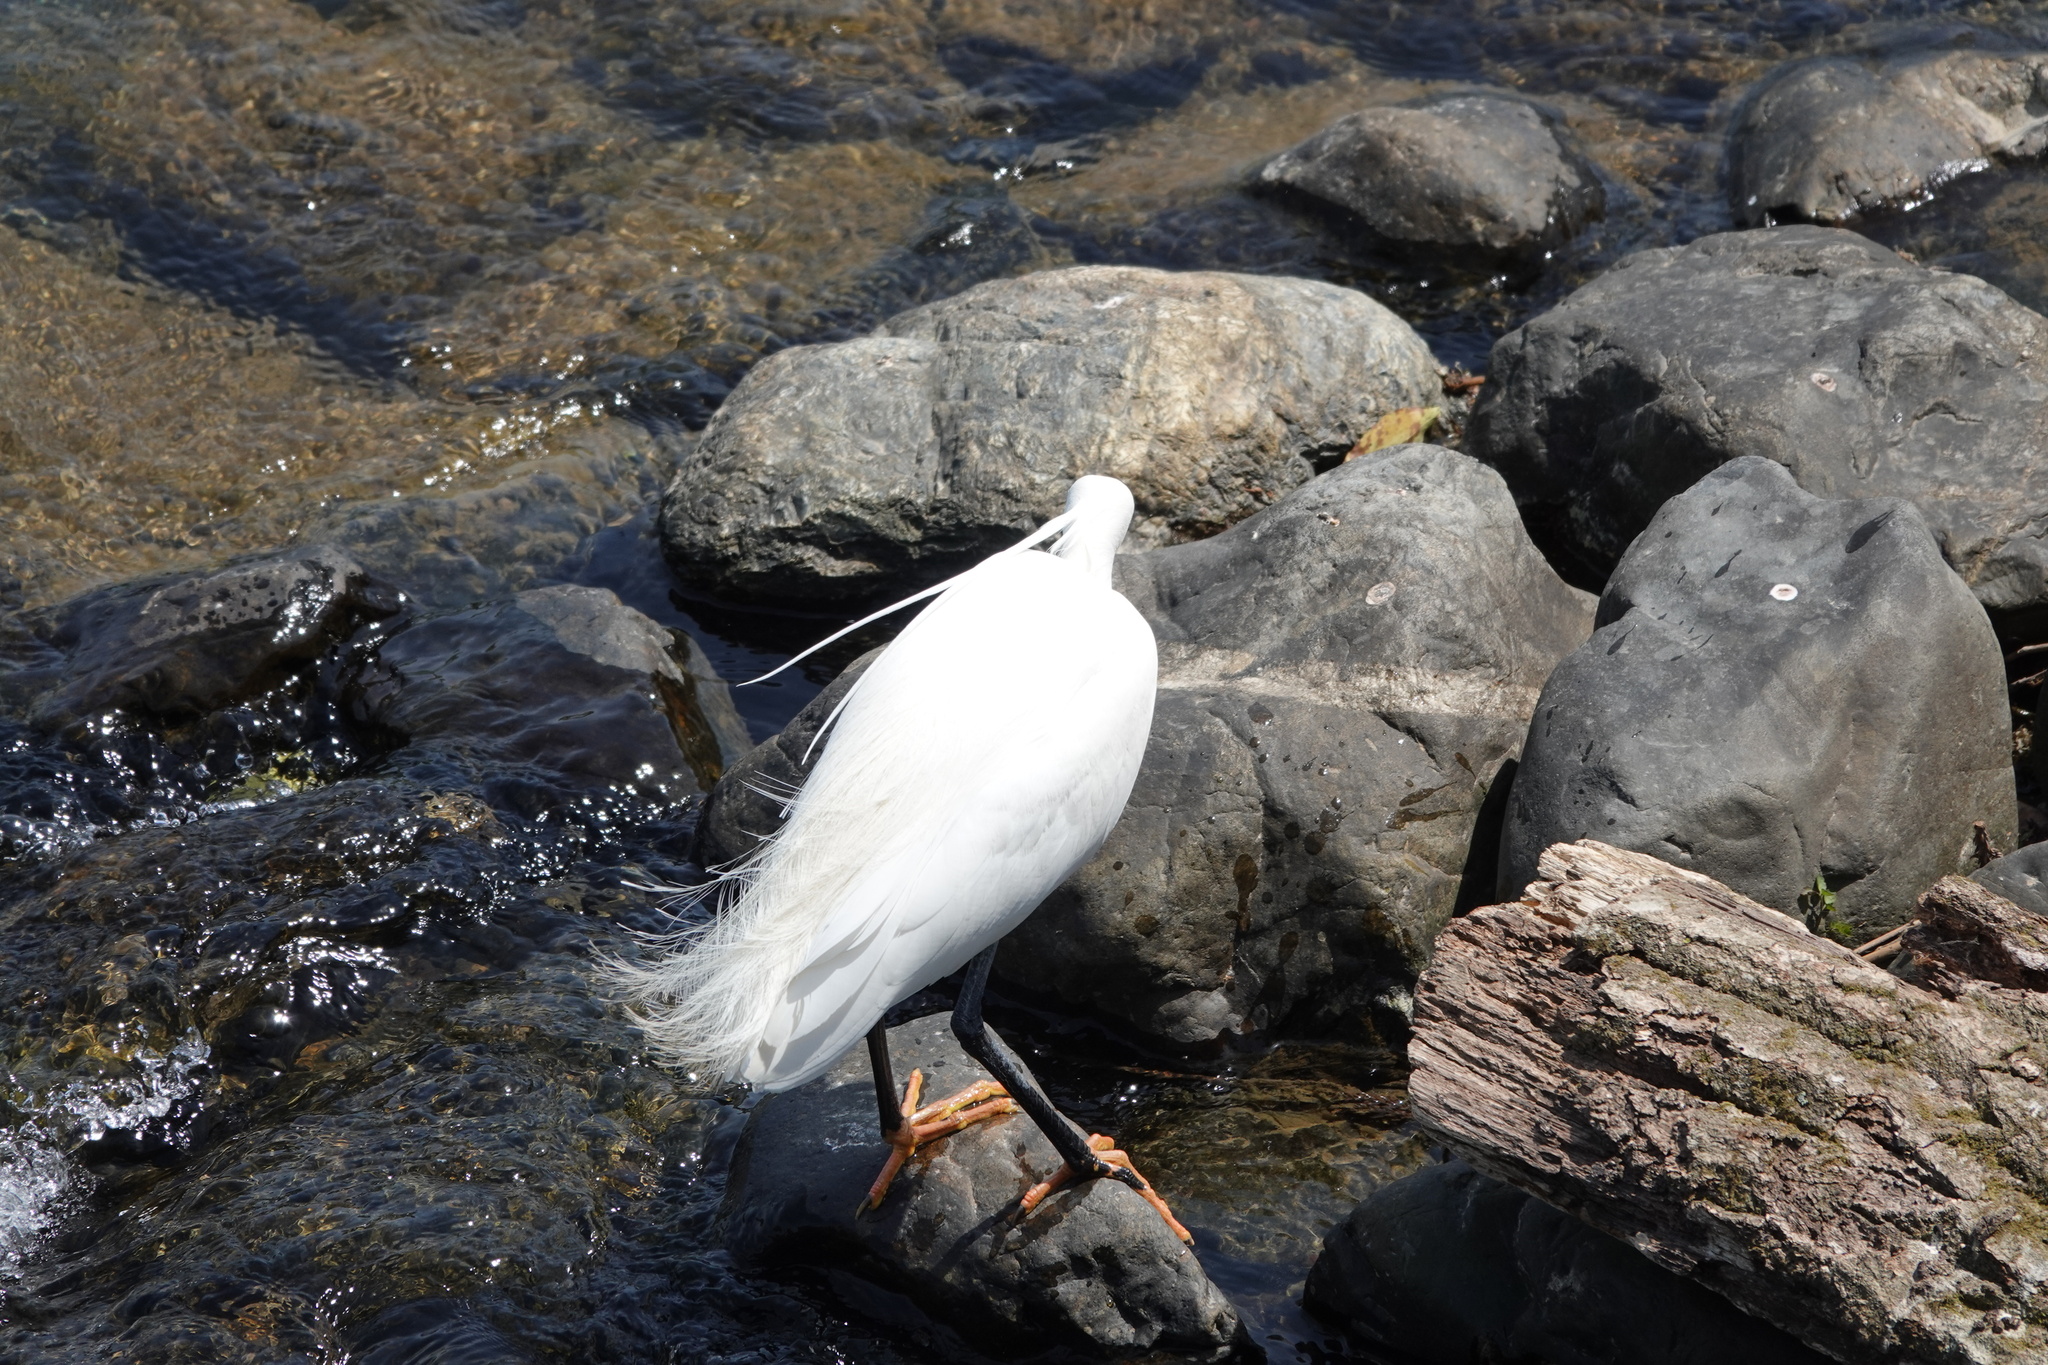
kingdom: Animalia
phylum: Chordata
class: Aves
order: Pelecaniformes
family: Ardeidae
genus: Egretta
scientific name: Egretta garzetta
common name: Little egret
